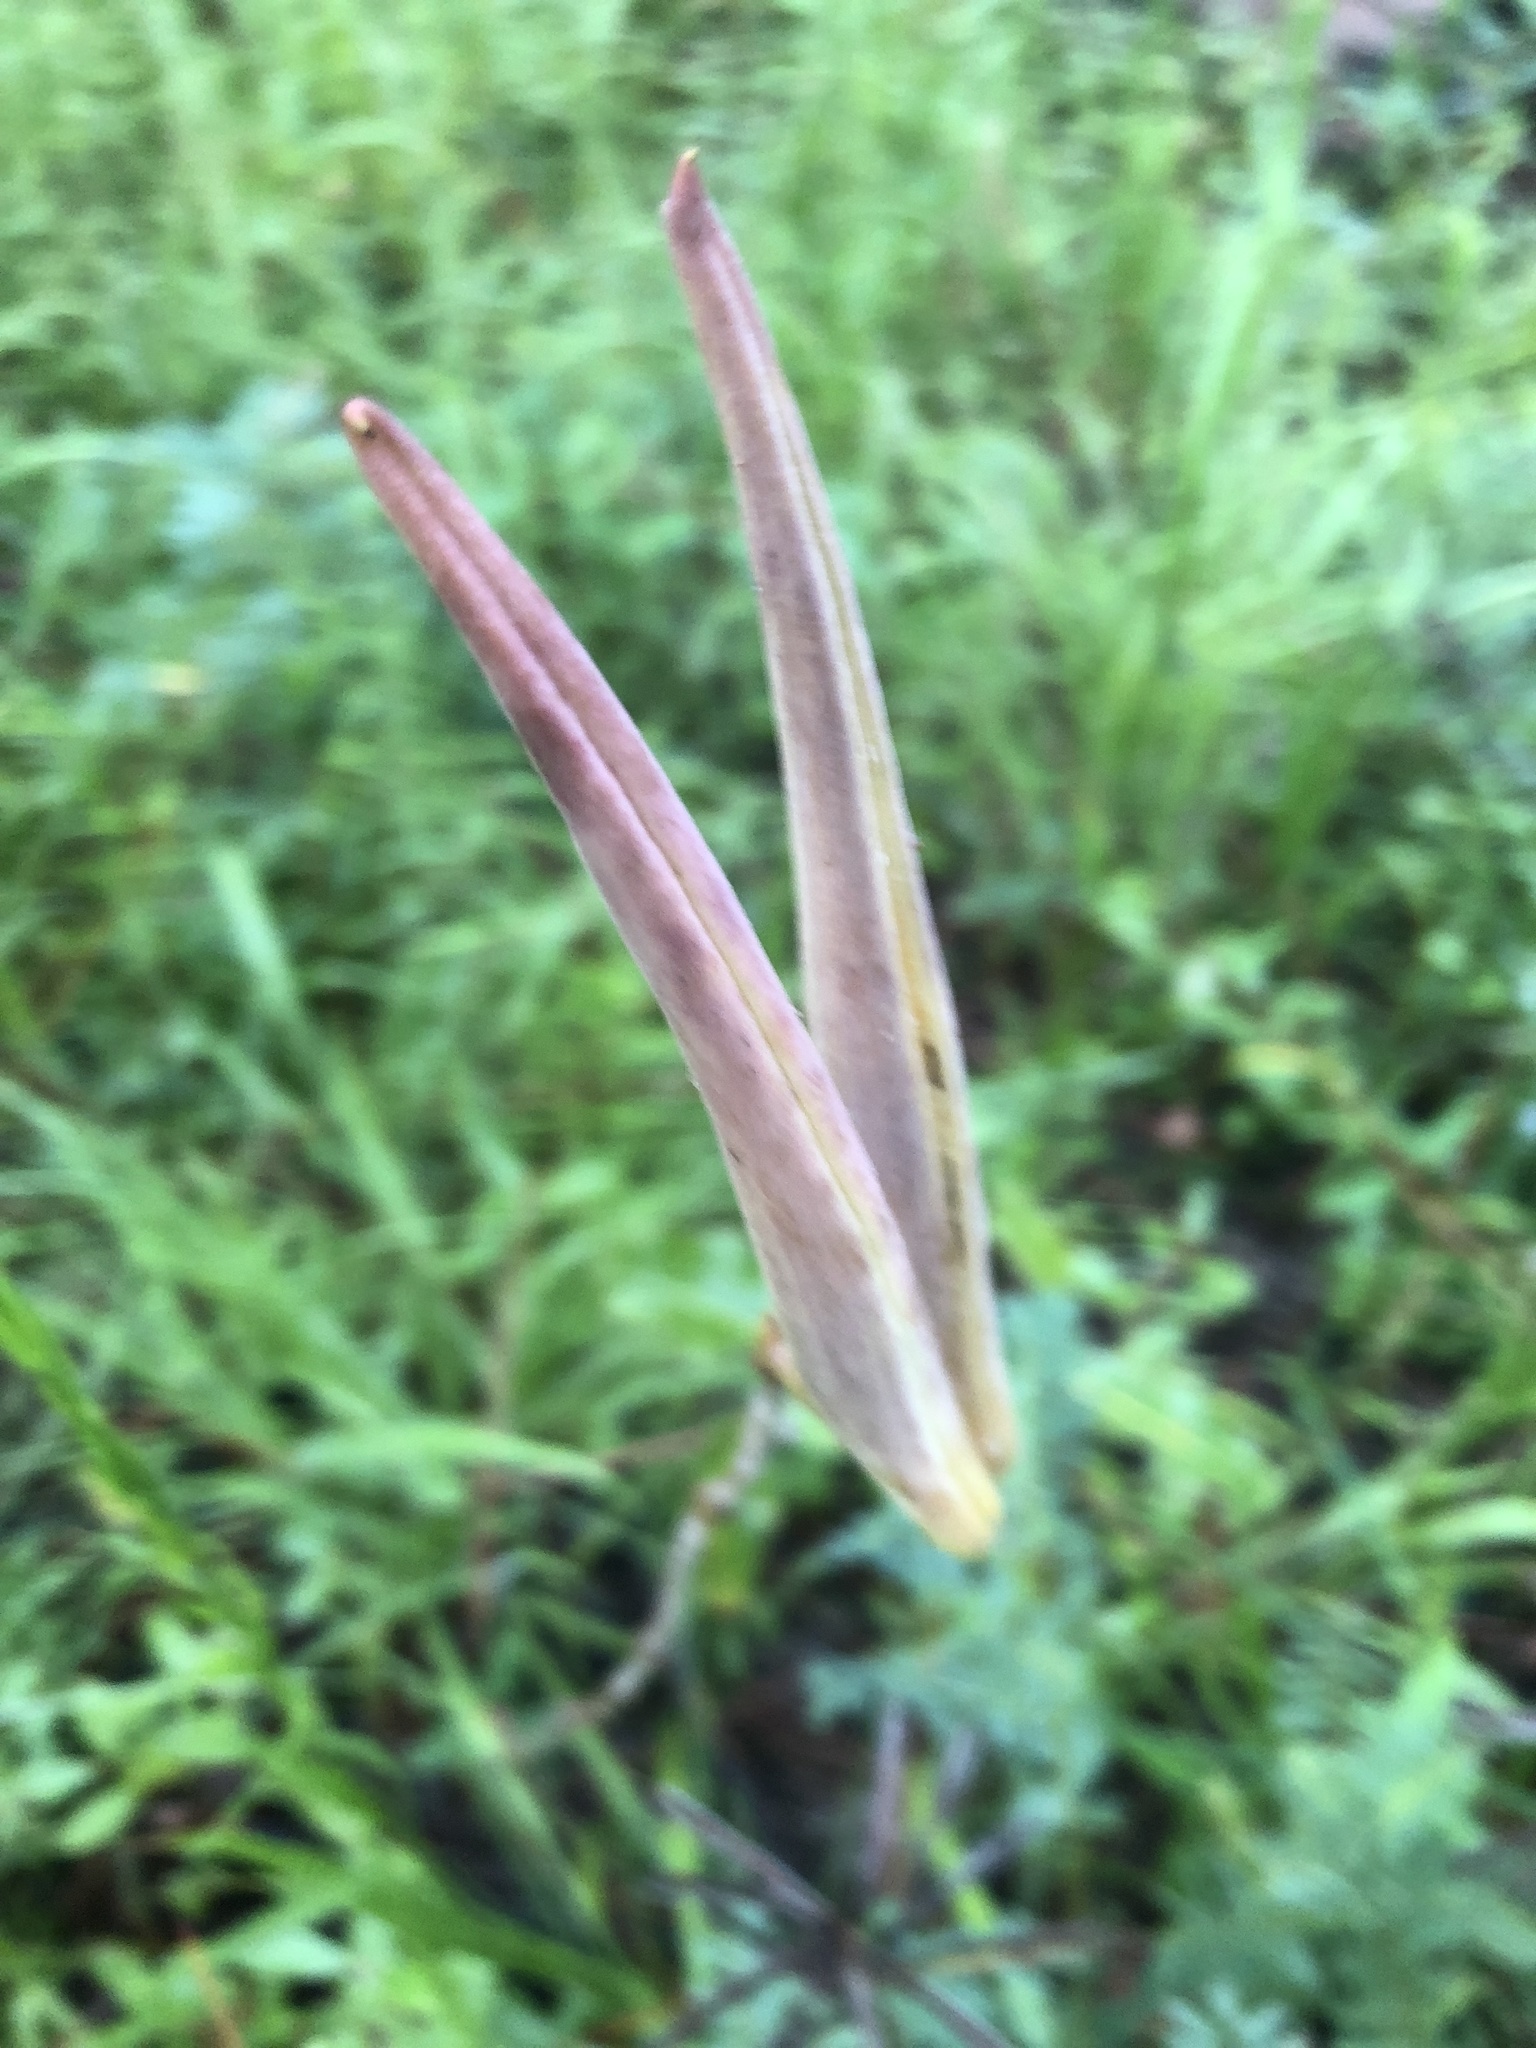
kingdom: Plantae
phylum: Tracheophyta
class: Magnoliopsida
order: Gentianales
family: Apocynaceae
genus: Asclepias
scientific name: Asclepias amplexicaulis
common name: Blunt-leaf milkweed
